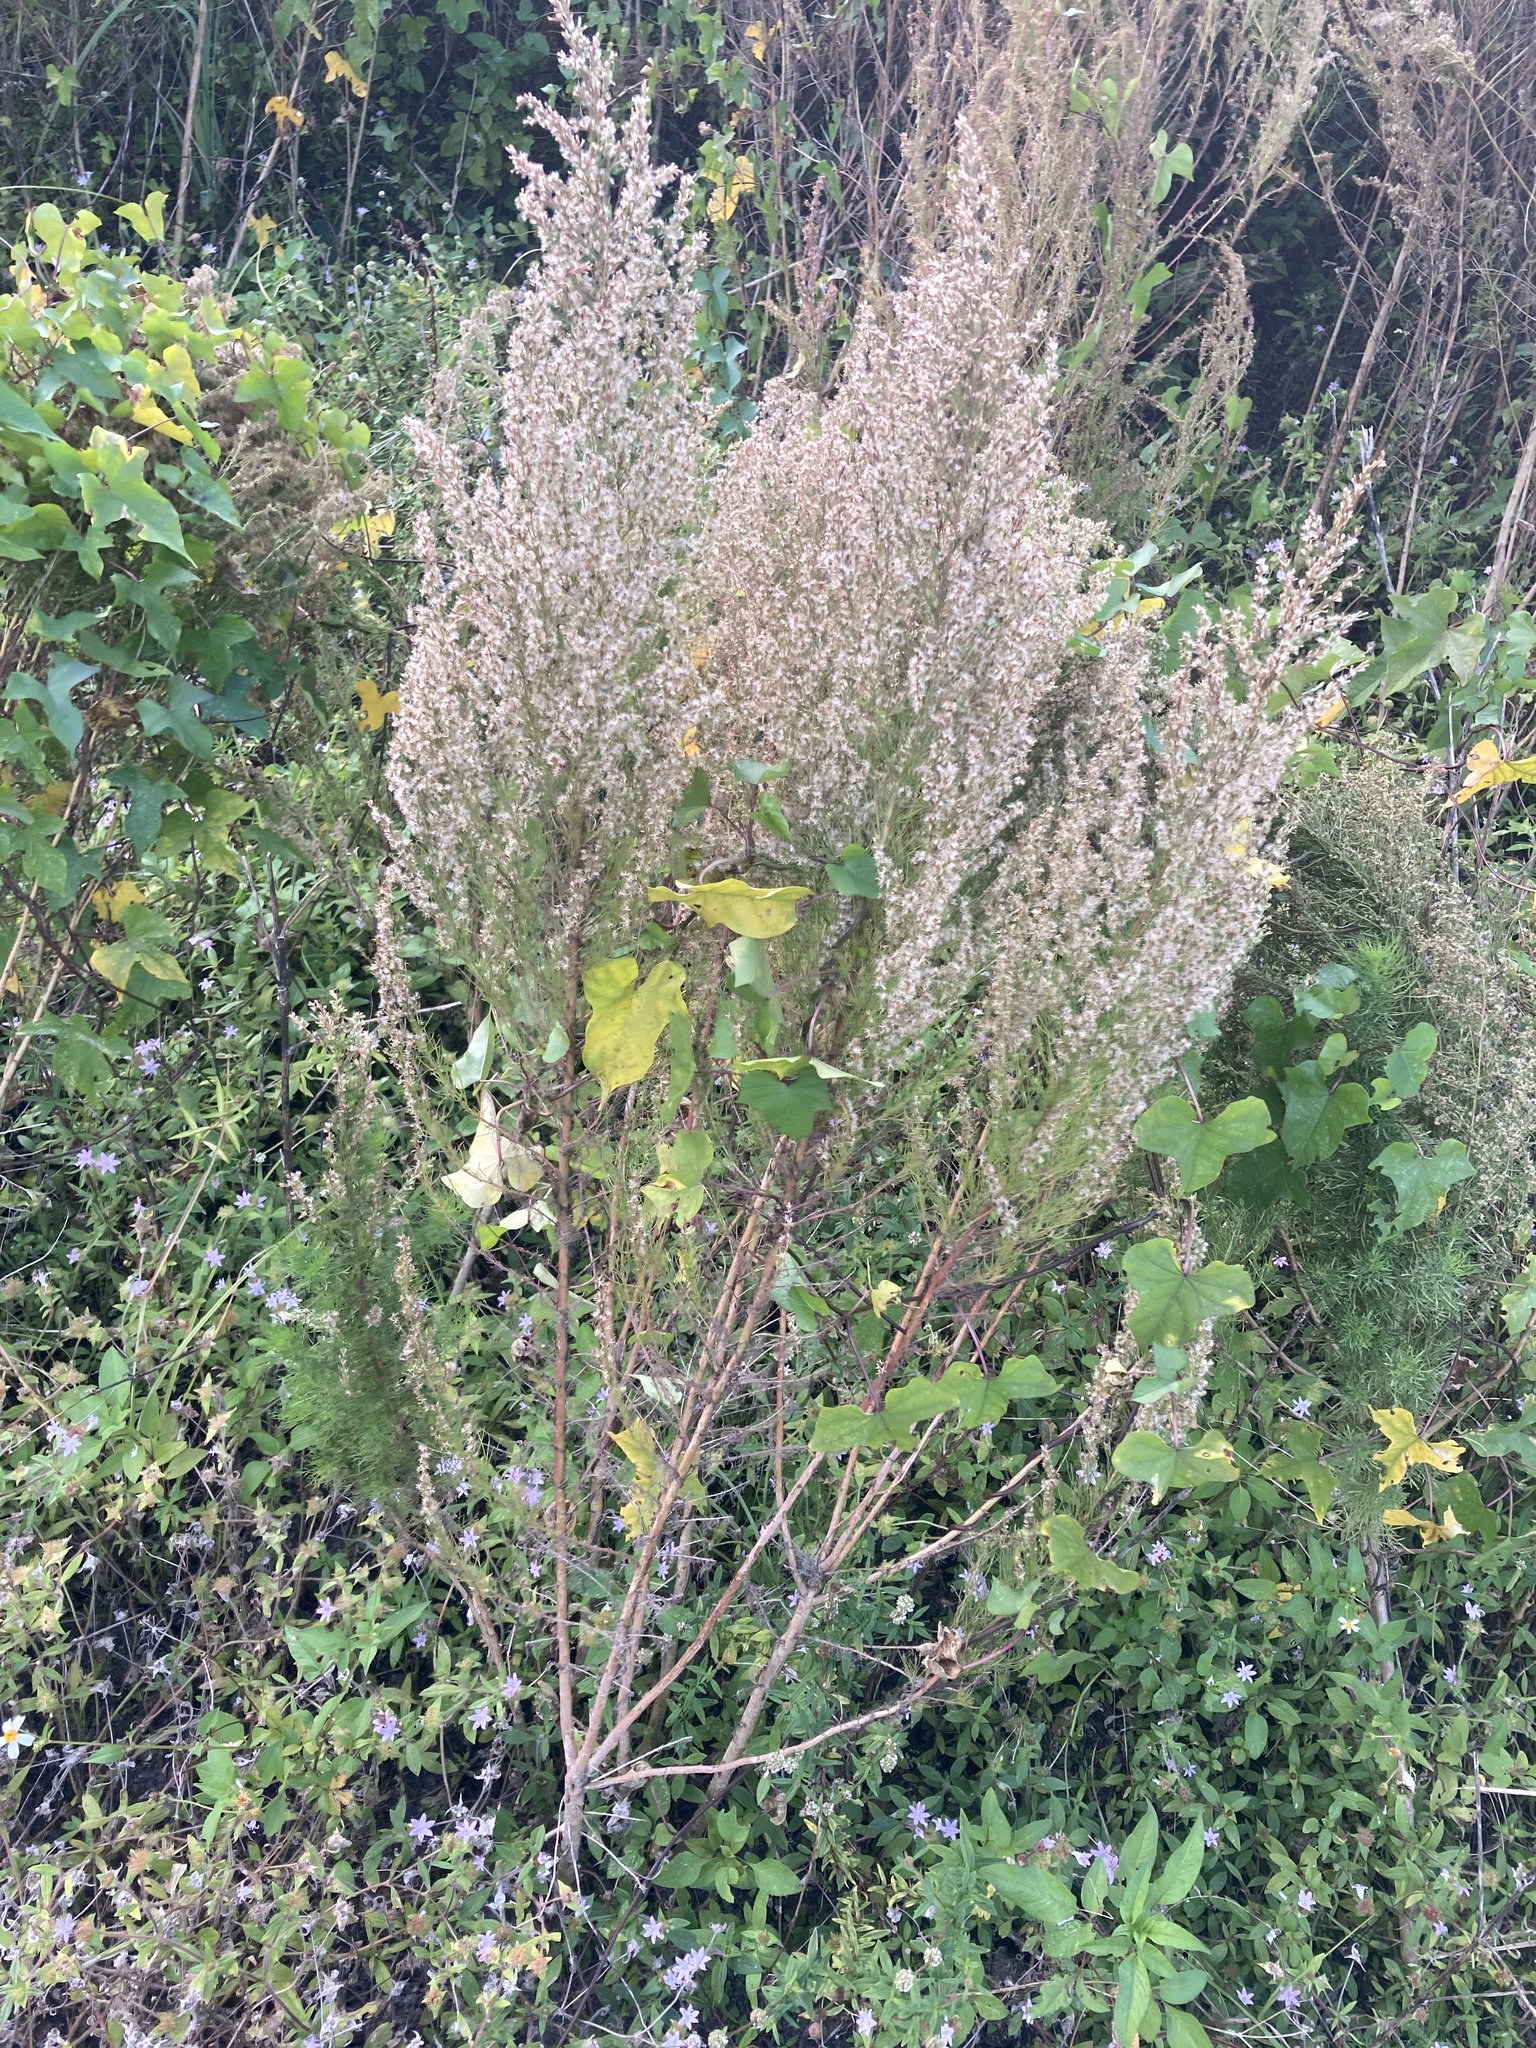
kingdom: Plantae
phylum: Tracheophyta
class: Magnoliopsida
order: Asterales
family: Asteraceae
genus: Eupatorium
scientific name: Eupatorium compositifolium
